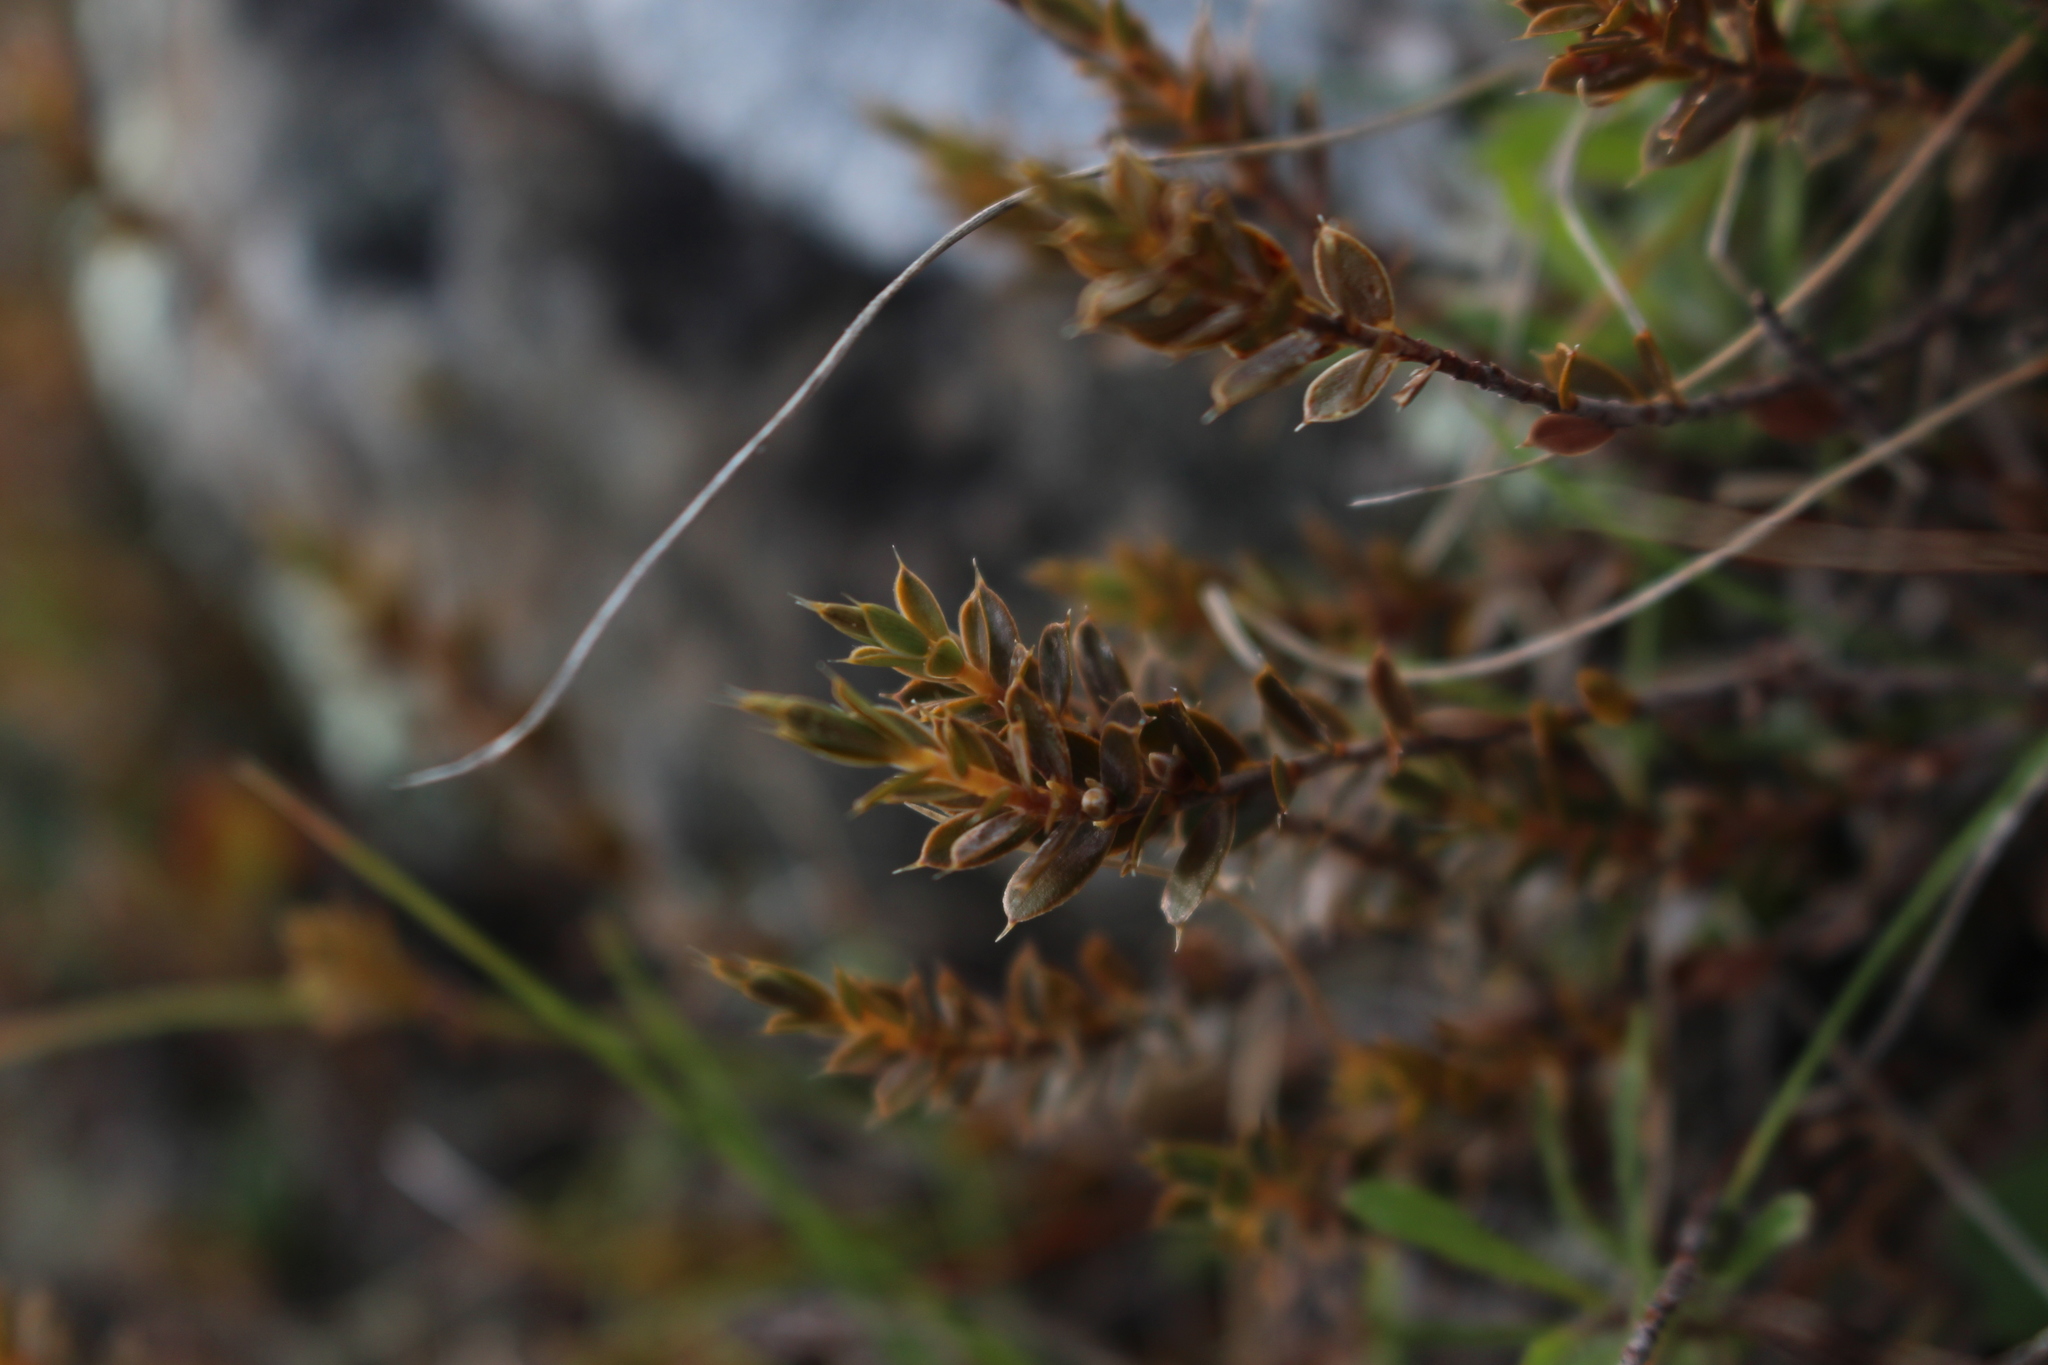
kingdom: Plantae
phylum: Tracheophyta
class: Magnoliopsida
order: Ericales
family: Ericaceae
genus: Styphelia
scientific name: Styphelia nesophila
